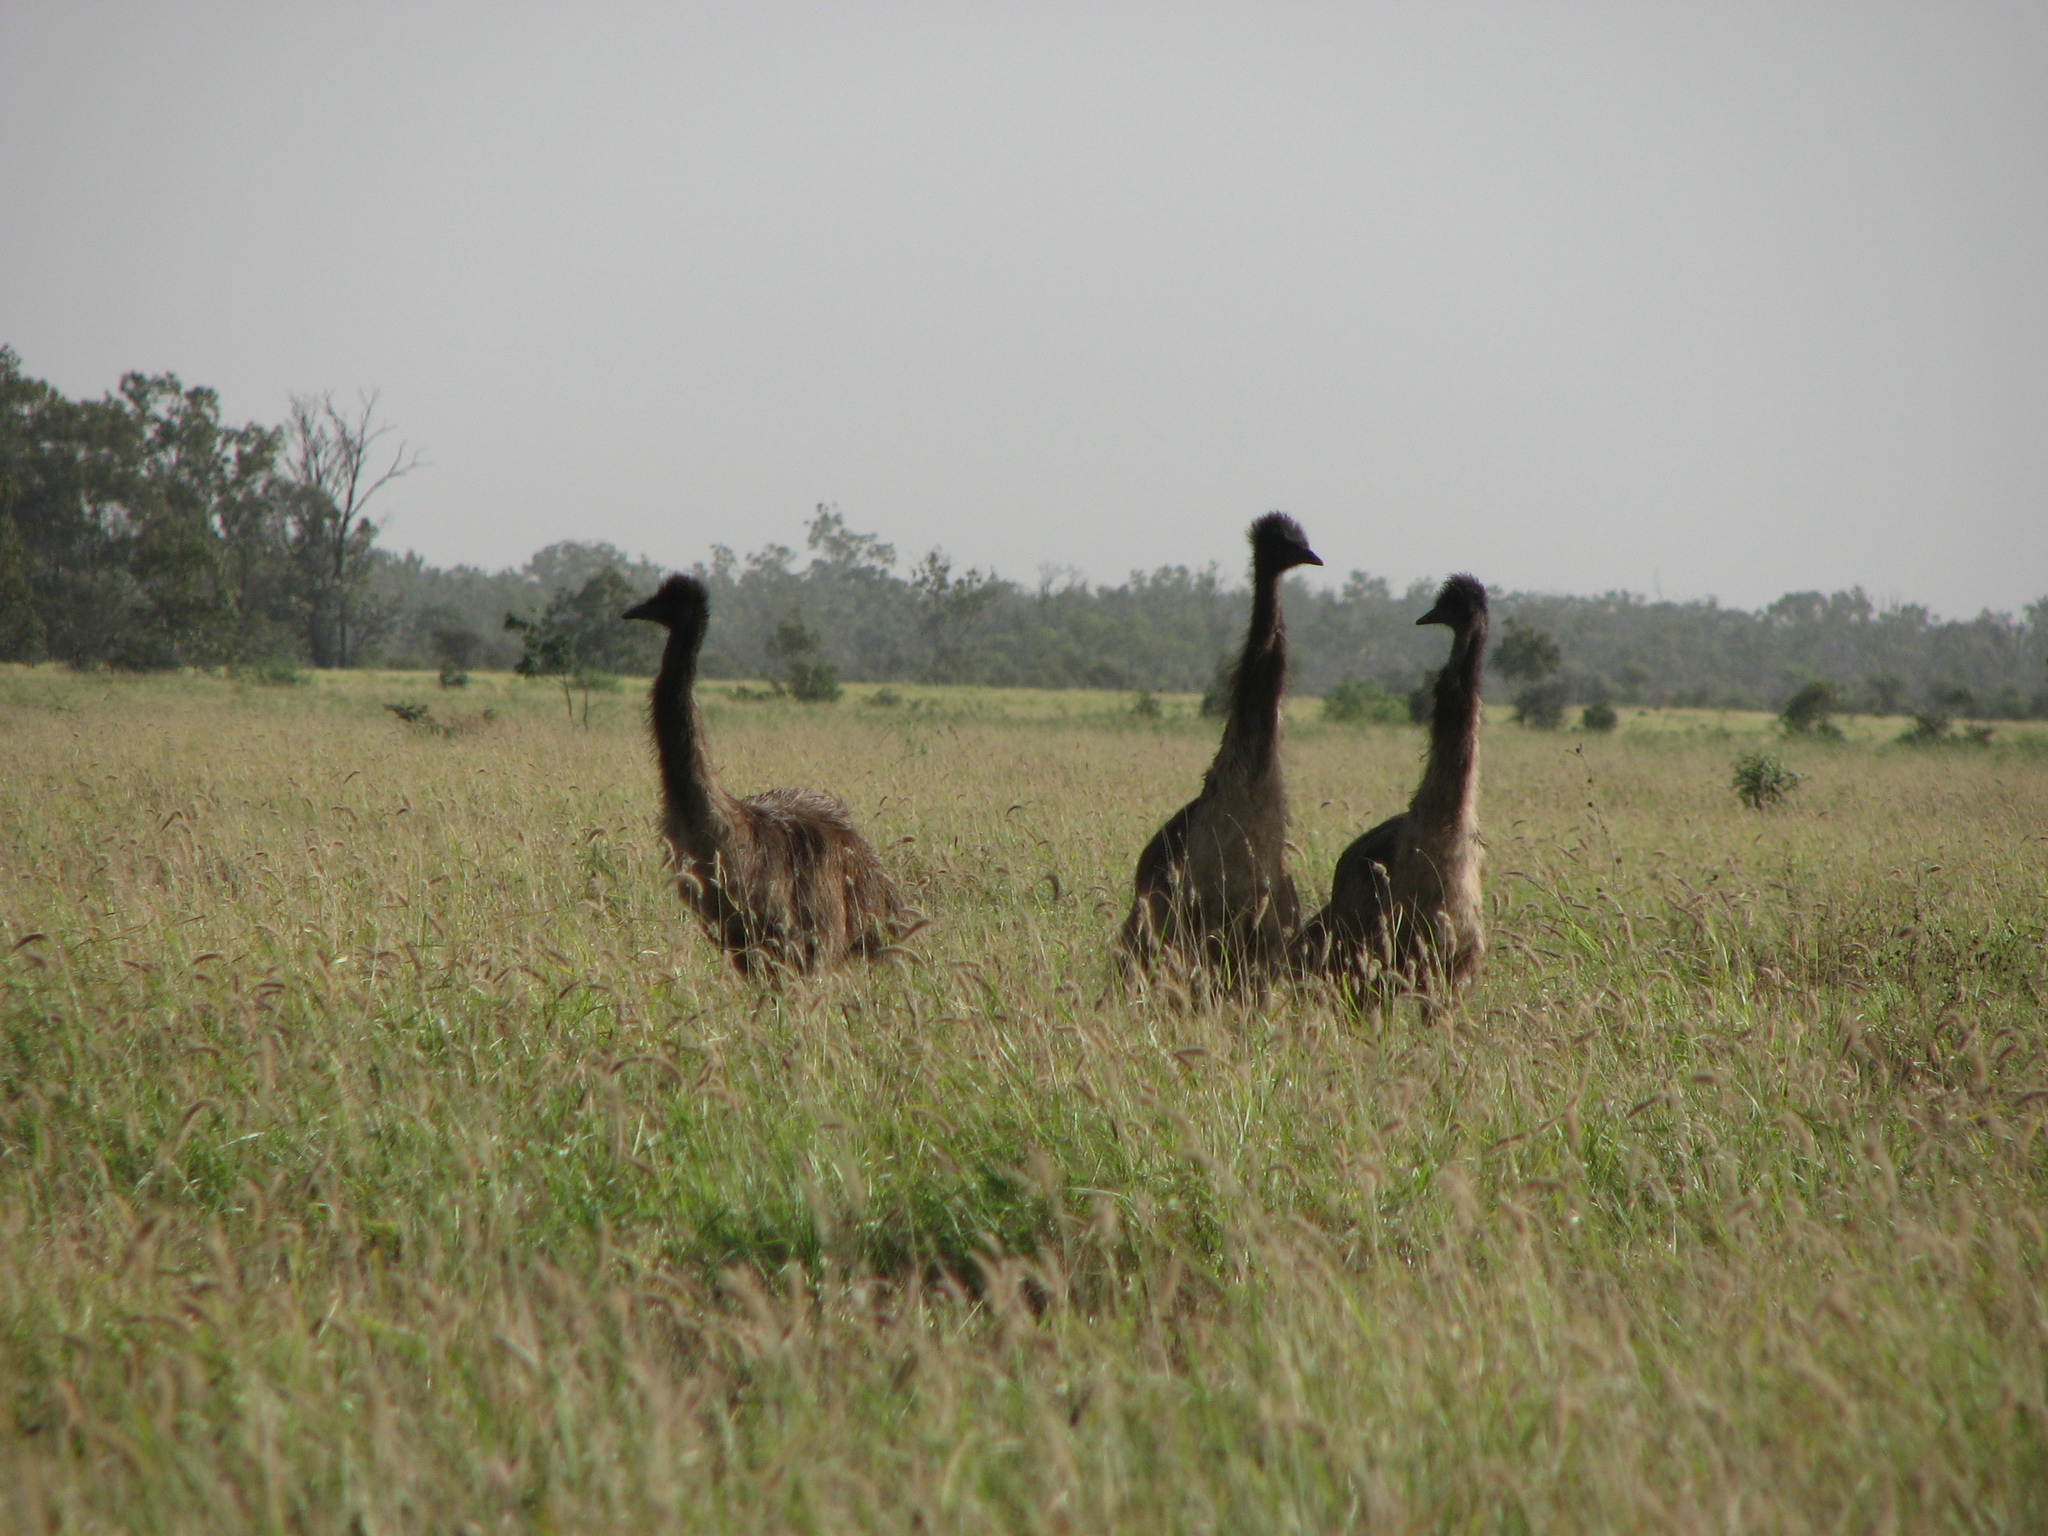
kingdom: Animalia
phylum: Chordata
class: Aves
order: Casuariiformes
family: Dromaiidae
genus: Dromaius
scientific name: Dromaius novaehollandiae
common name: Emu
